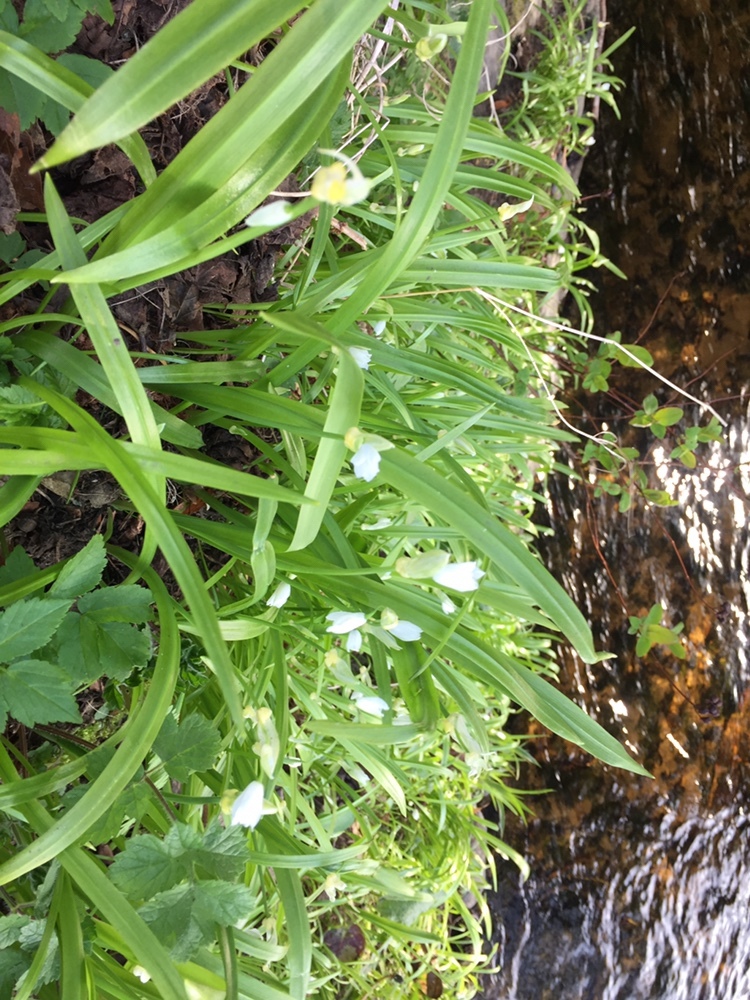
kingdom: Plantae
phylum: Tracheophyta
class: Liliopsida
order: Asparagales
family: Amaryllidaceae
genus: Allium
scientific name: Allium paradoxum
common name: Few-flowered garlic
